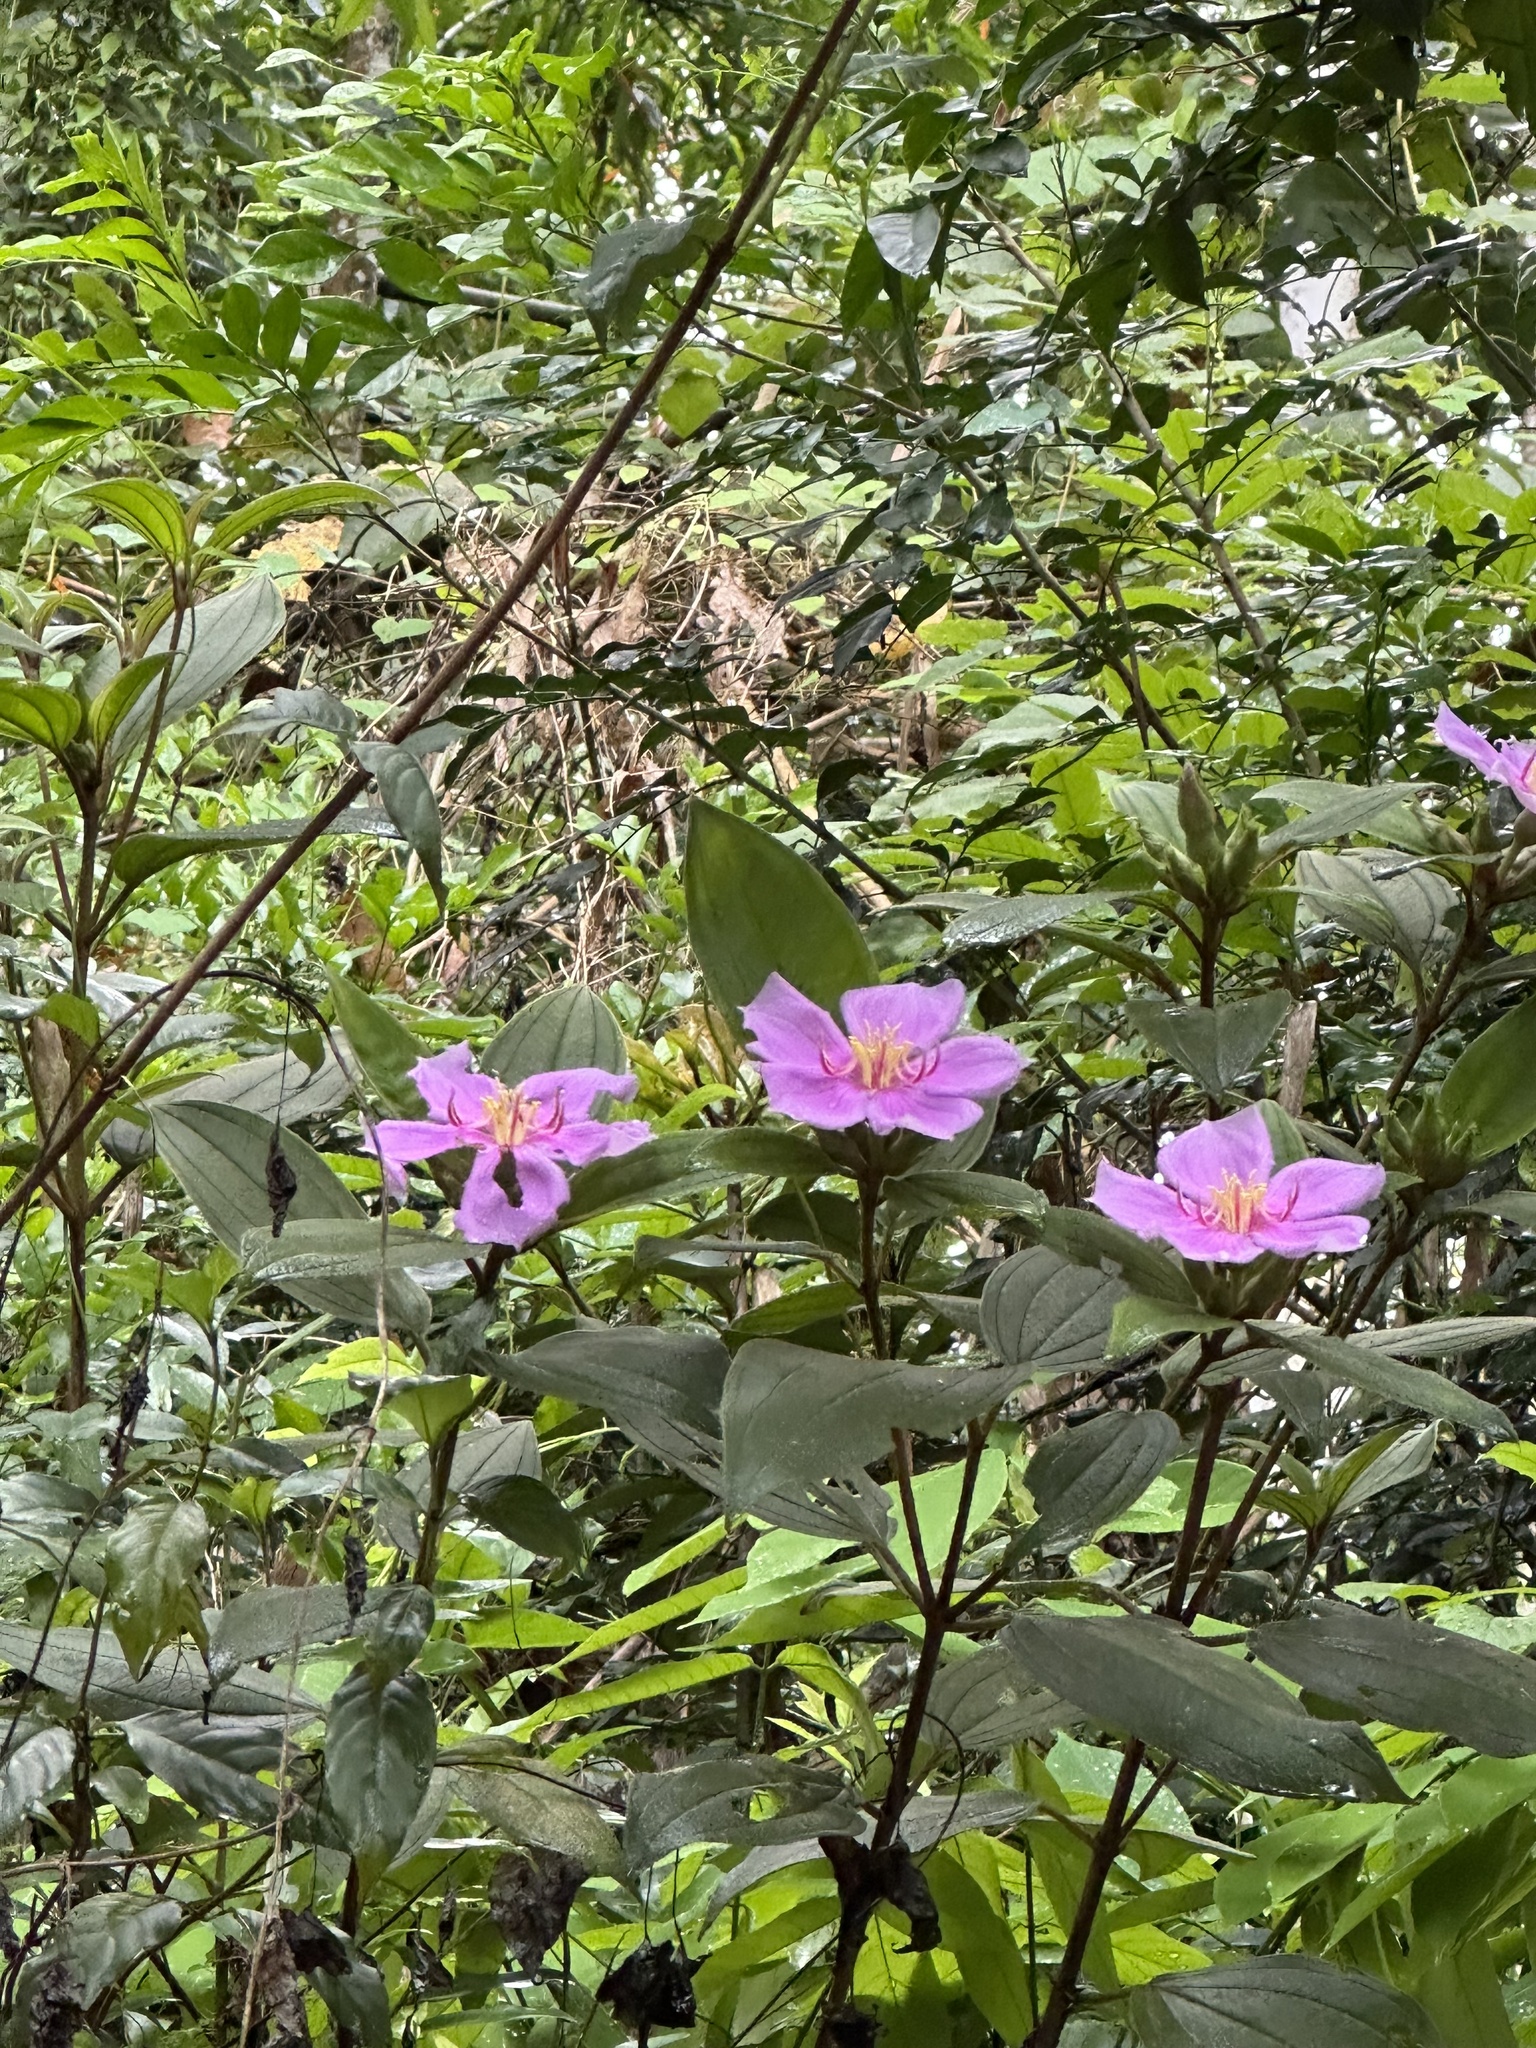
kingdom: Plantae
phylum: Tracheophyta
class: Magnoliopsida
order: Myrtales
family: Melastomataceae
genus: Melastoma
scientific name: Melastoma malabathricum
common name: Indian-rhododendron
